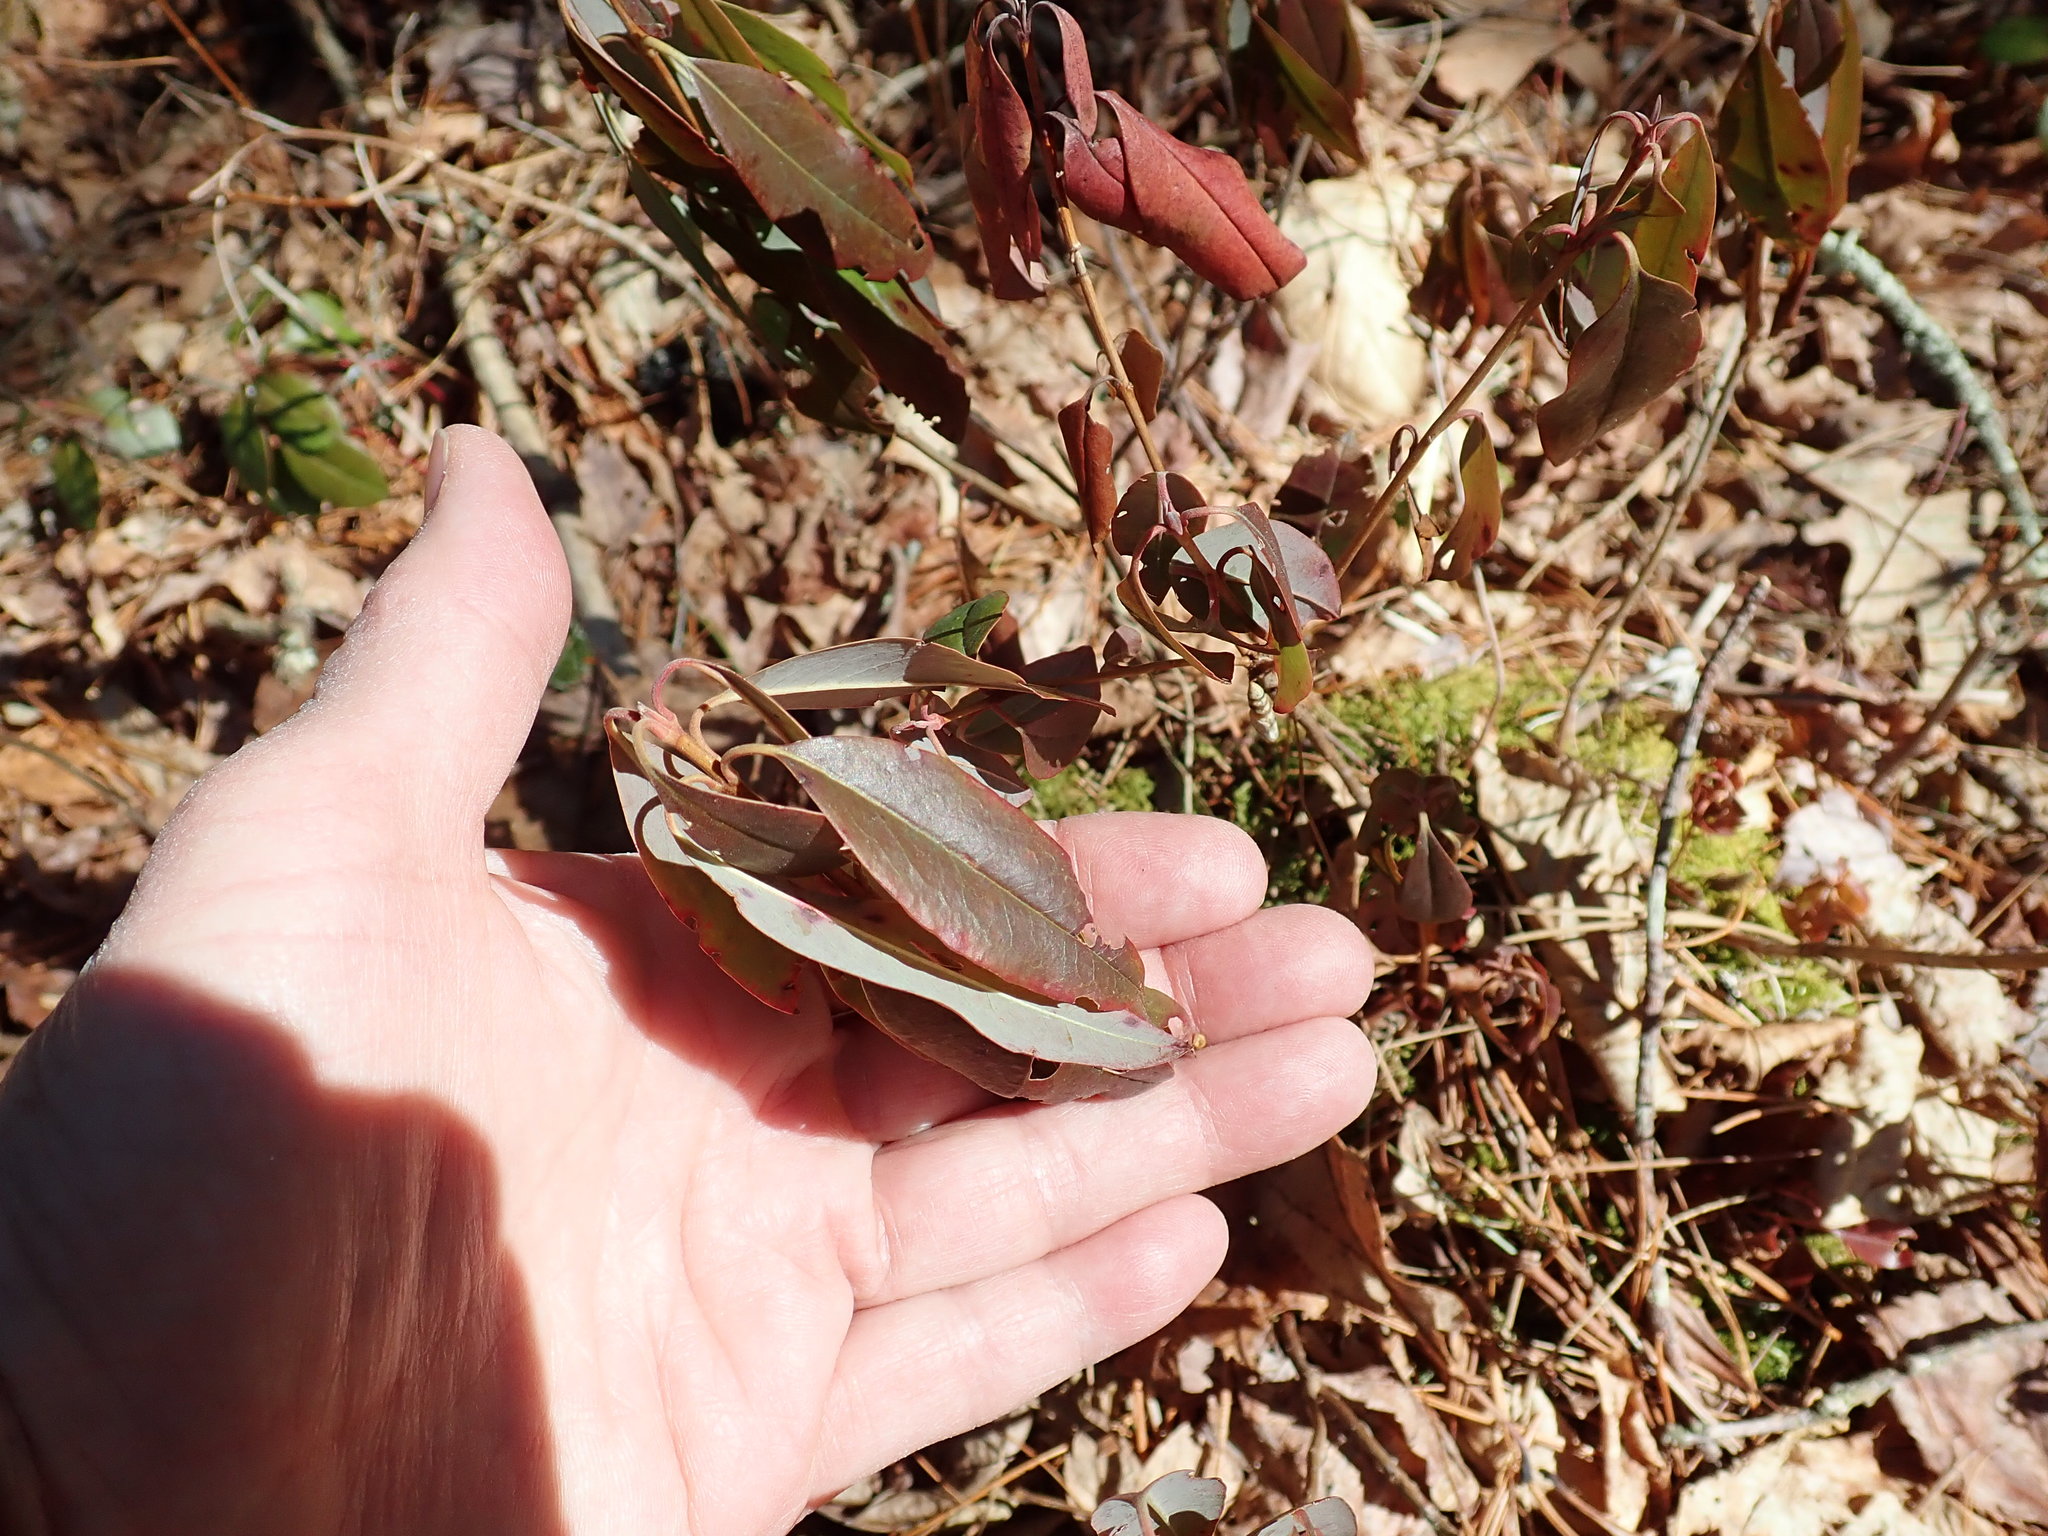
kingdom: Plantae
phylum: Tracheophyta
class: Magnoliopsida
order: Ericales
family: Ericaceae
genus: Kalmia
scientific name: Kalmia angustifolia
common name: Sheep-laurel
